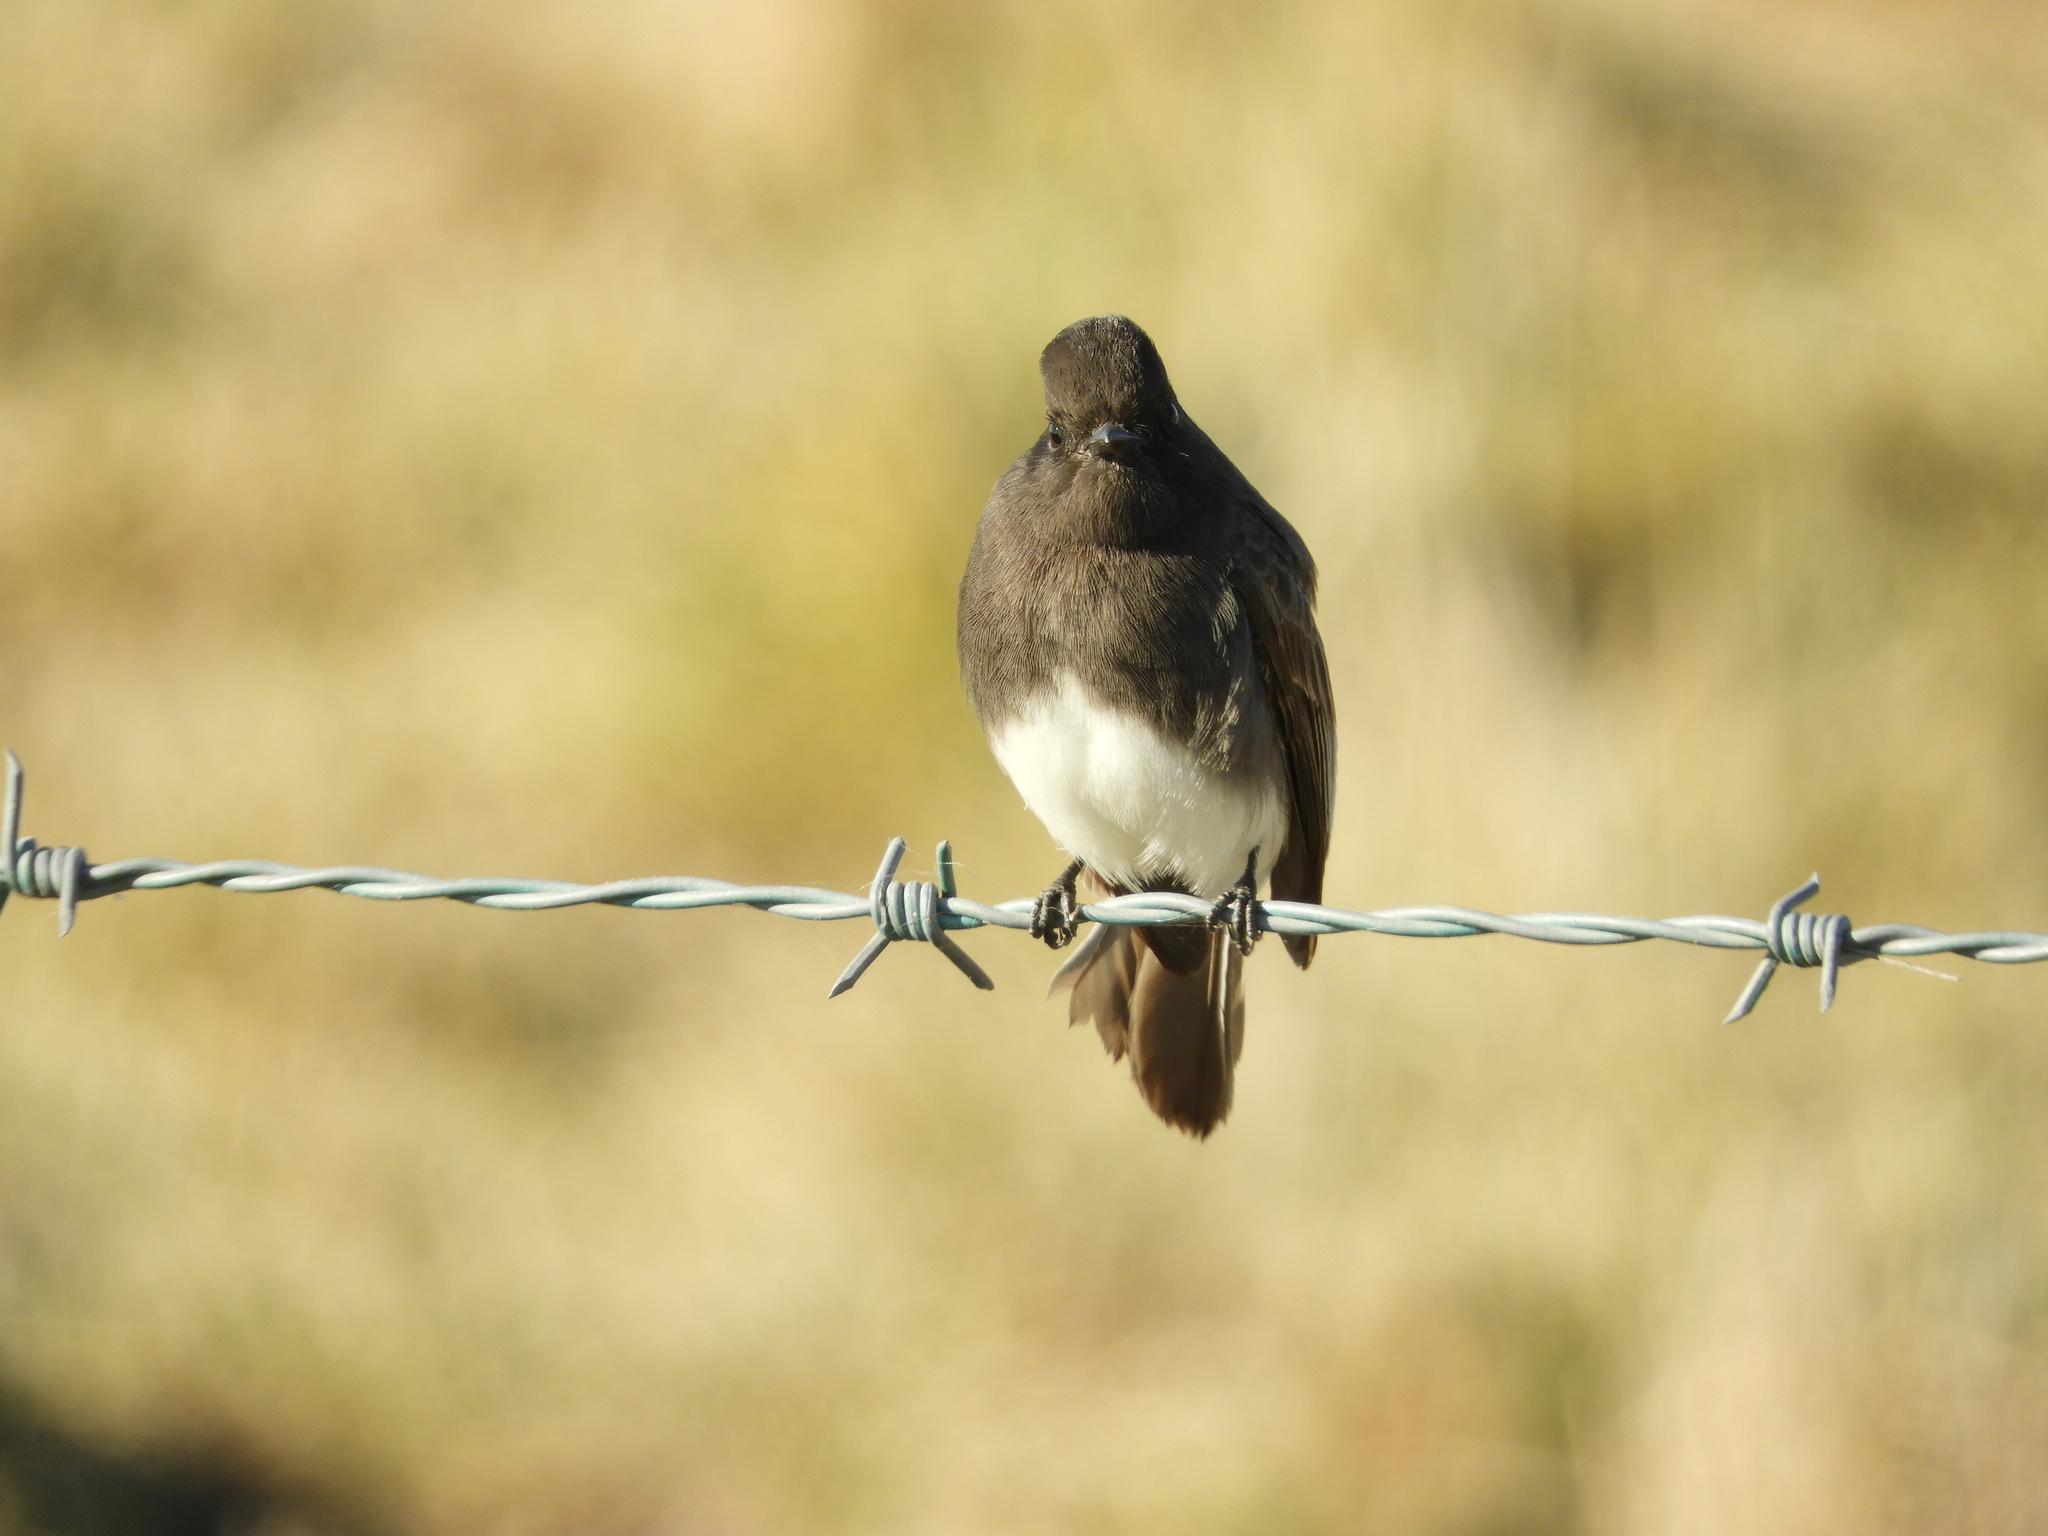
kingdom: Animalia
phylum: Chordata
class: Aves
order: Passeriformes
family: Tyrannidae
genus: Sayornis
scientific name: Sayornis nigricans
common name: Black phoebe
